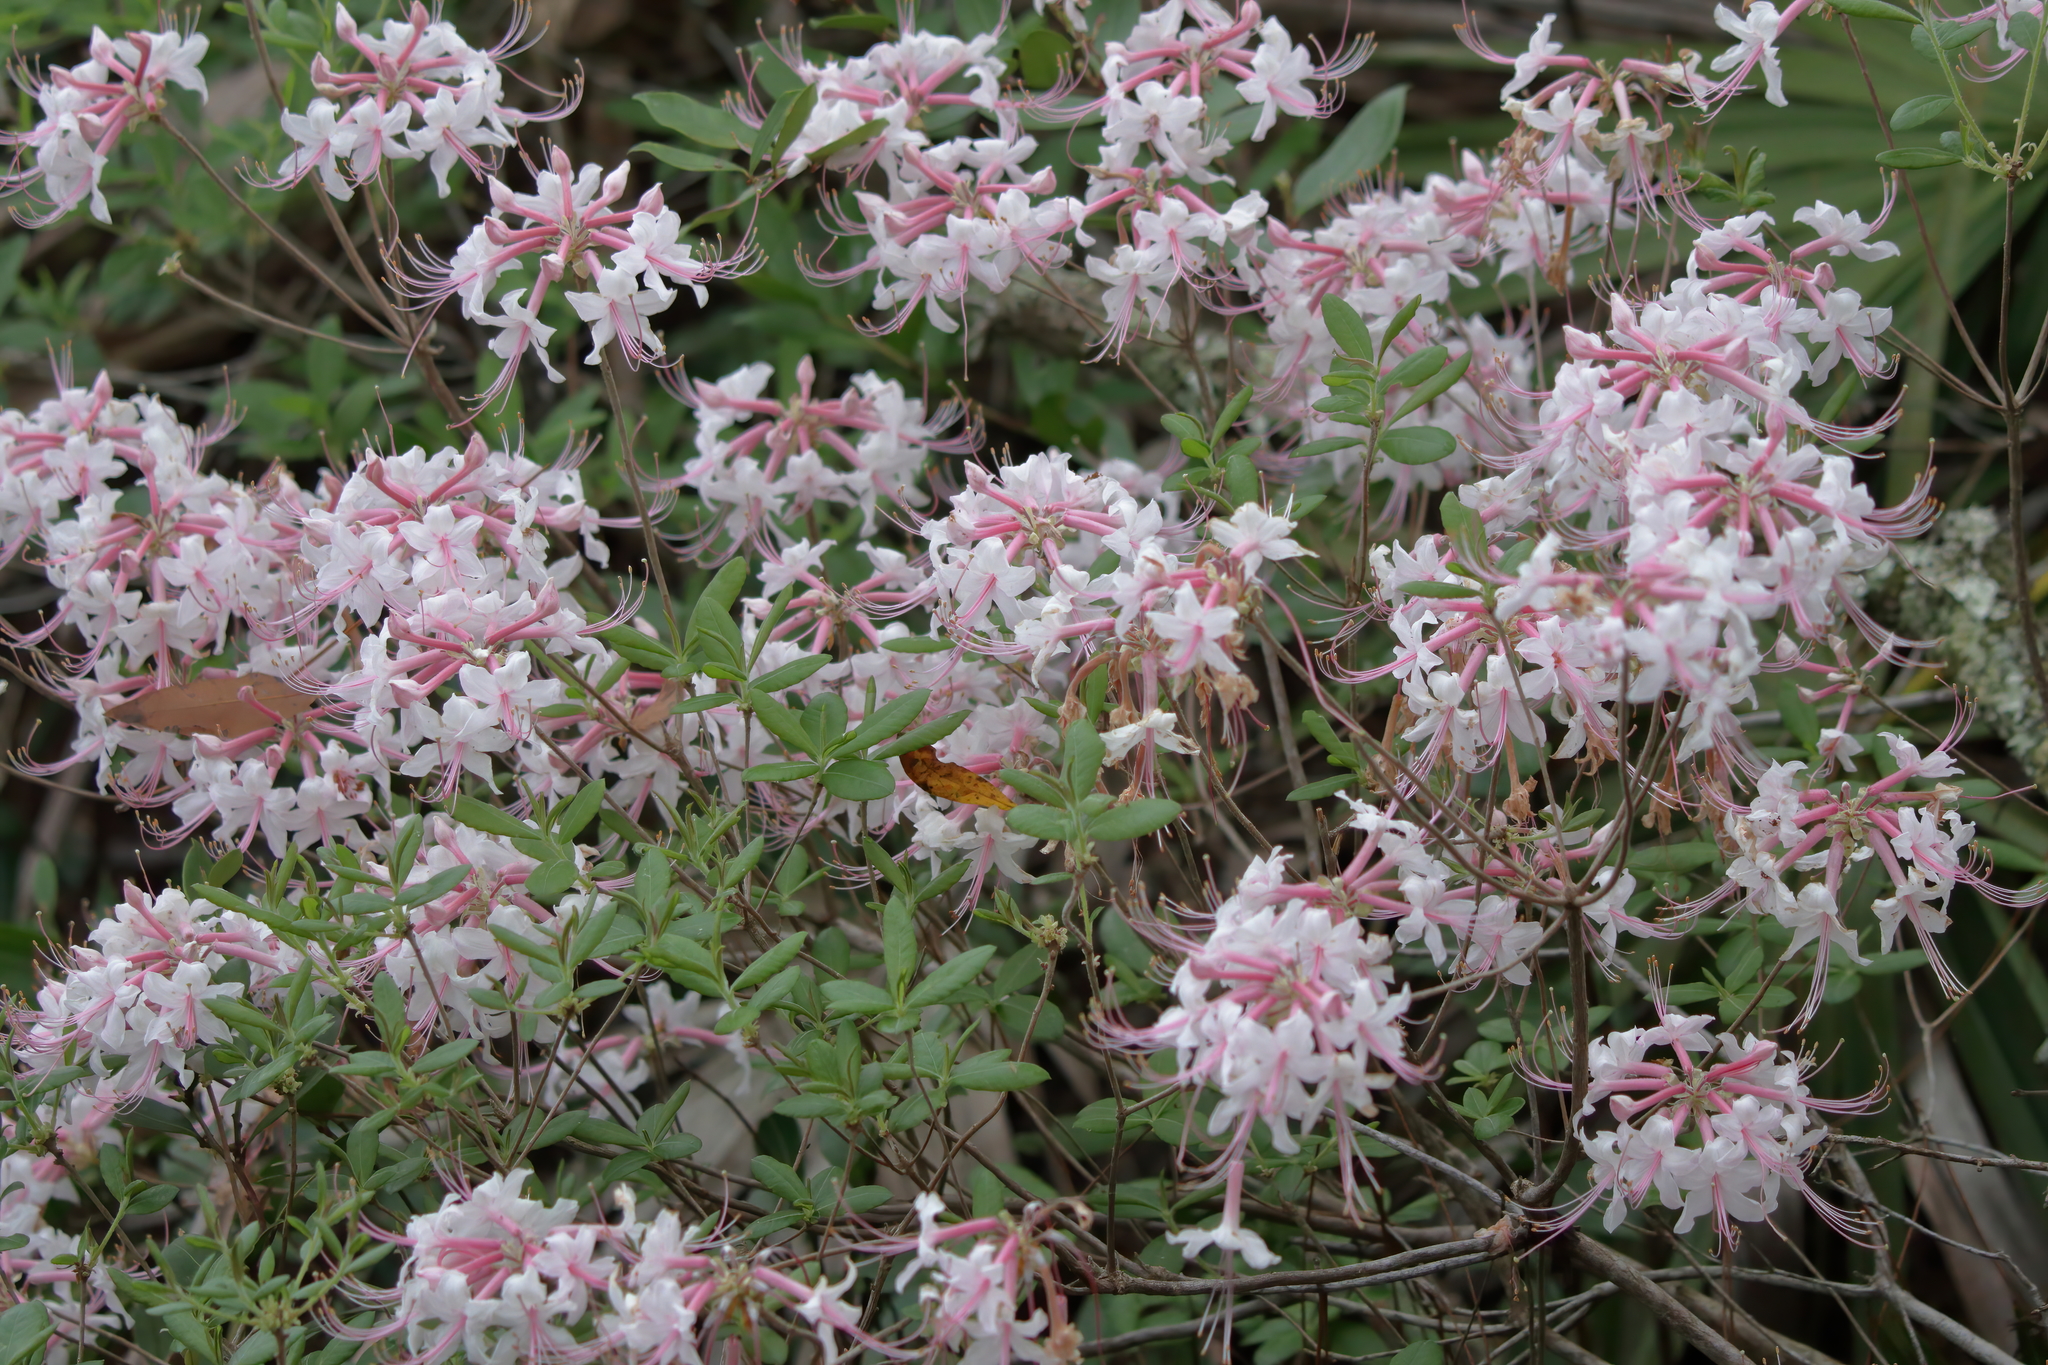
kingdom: Plantae
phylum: Tracheophyta
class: Magnoliopsida
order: Ericales
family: Ericaceae
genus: Rhododendron
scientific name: Rhododendron canescens
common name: Mountain azalea
